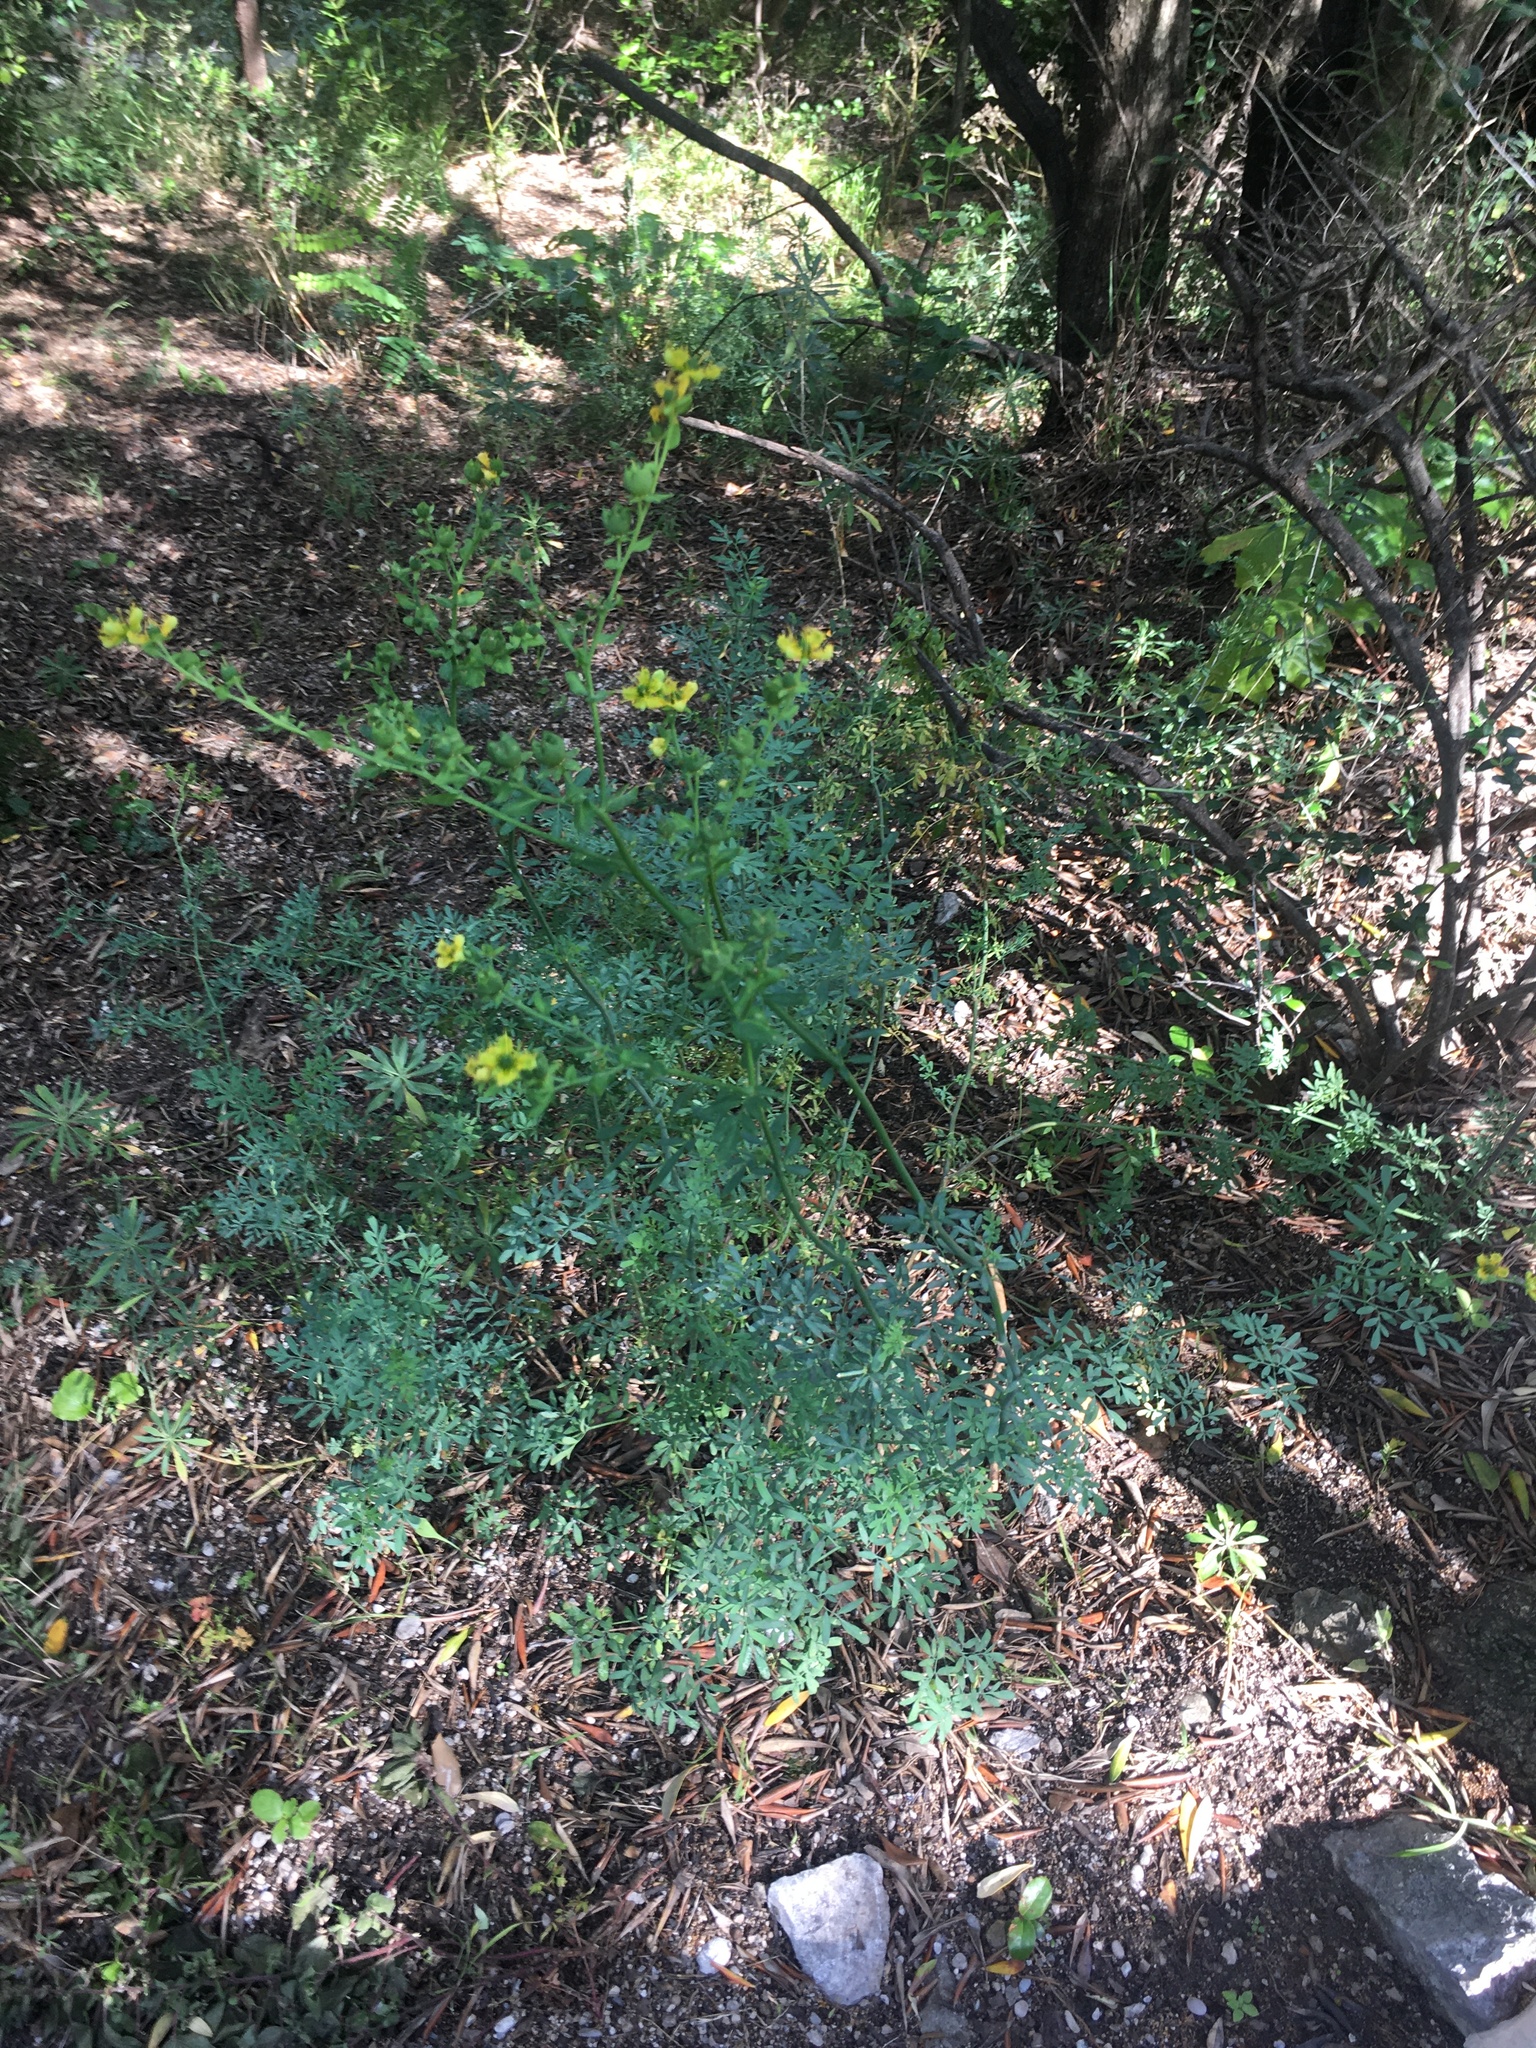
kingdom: Plantae
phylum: Tracheophyta
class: Magnoliopsida
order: Sapindales
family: Rutaceae
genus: Ruta
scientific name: Ruta chalepensis
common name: Fringed rue
